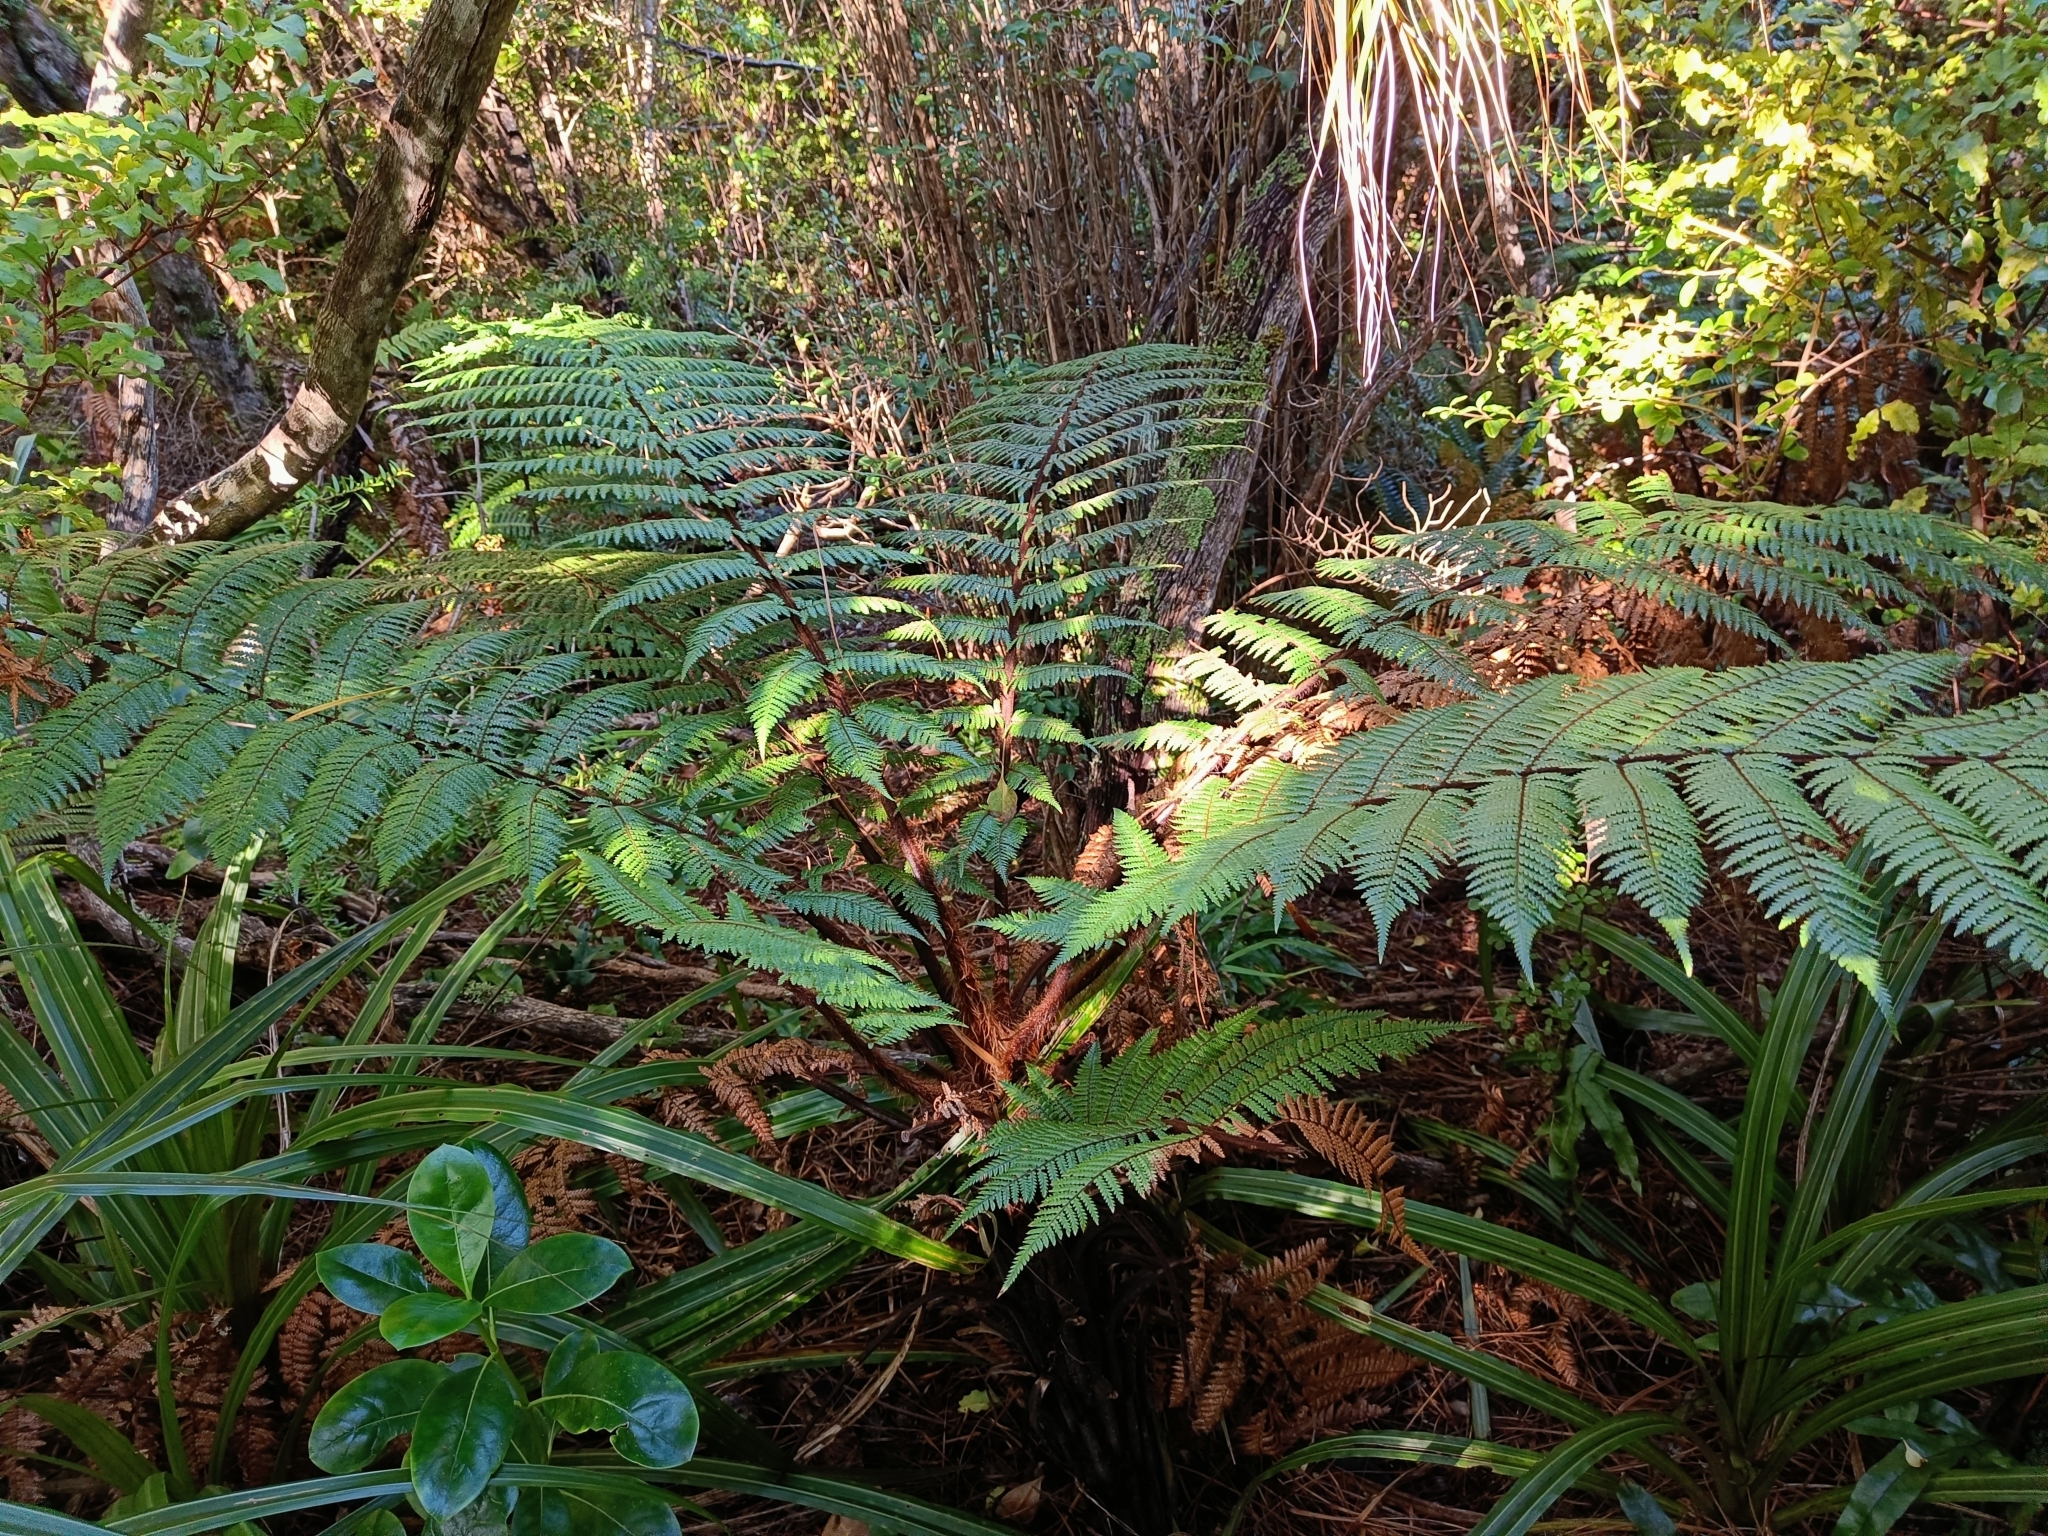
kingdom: Plantae
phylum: Tracheophyta
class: Polypodiopsida
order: Cyatheales
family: Dicksoniaceae
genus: Dicksonia
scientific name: Dicksonia squarrosa
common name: Hard treefern
